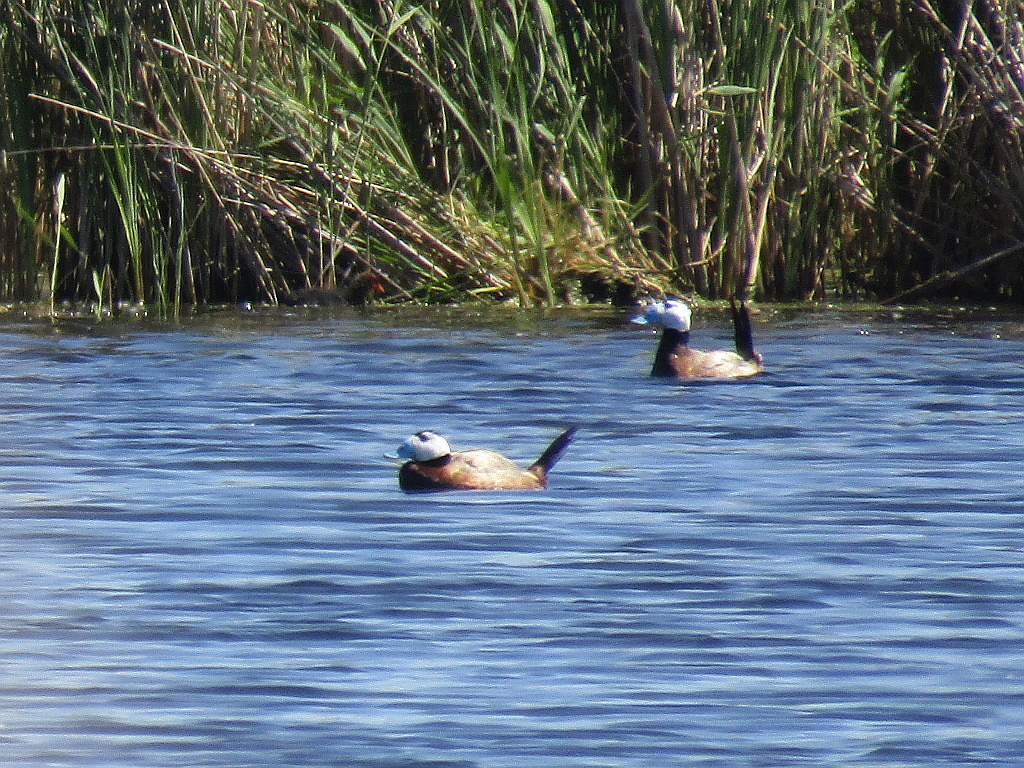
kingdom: Animalia
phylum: Chordata
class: Aves
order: Anseriformes
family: Anatidae
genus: Oxyura
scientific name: Oxyura leucocephala
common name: White-headed duck
